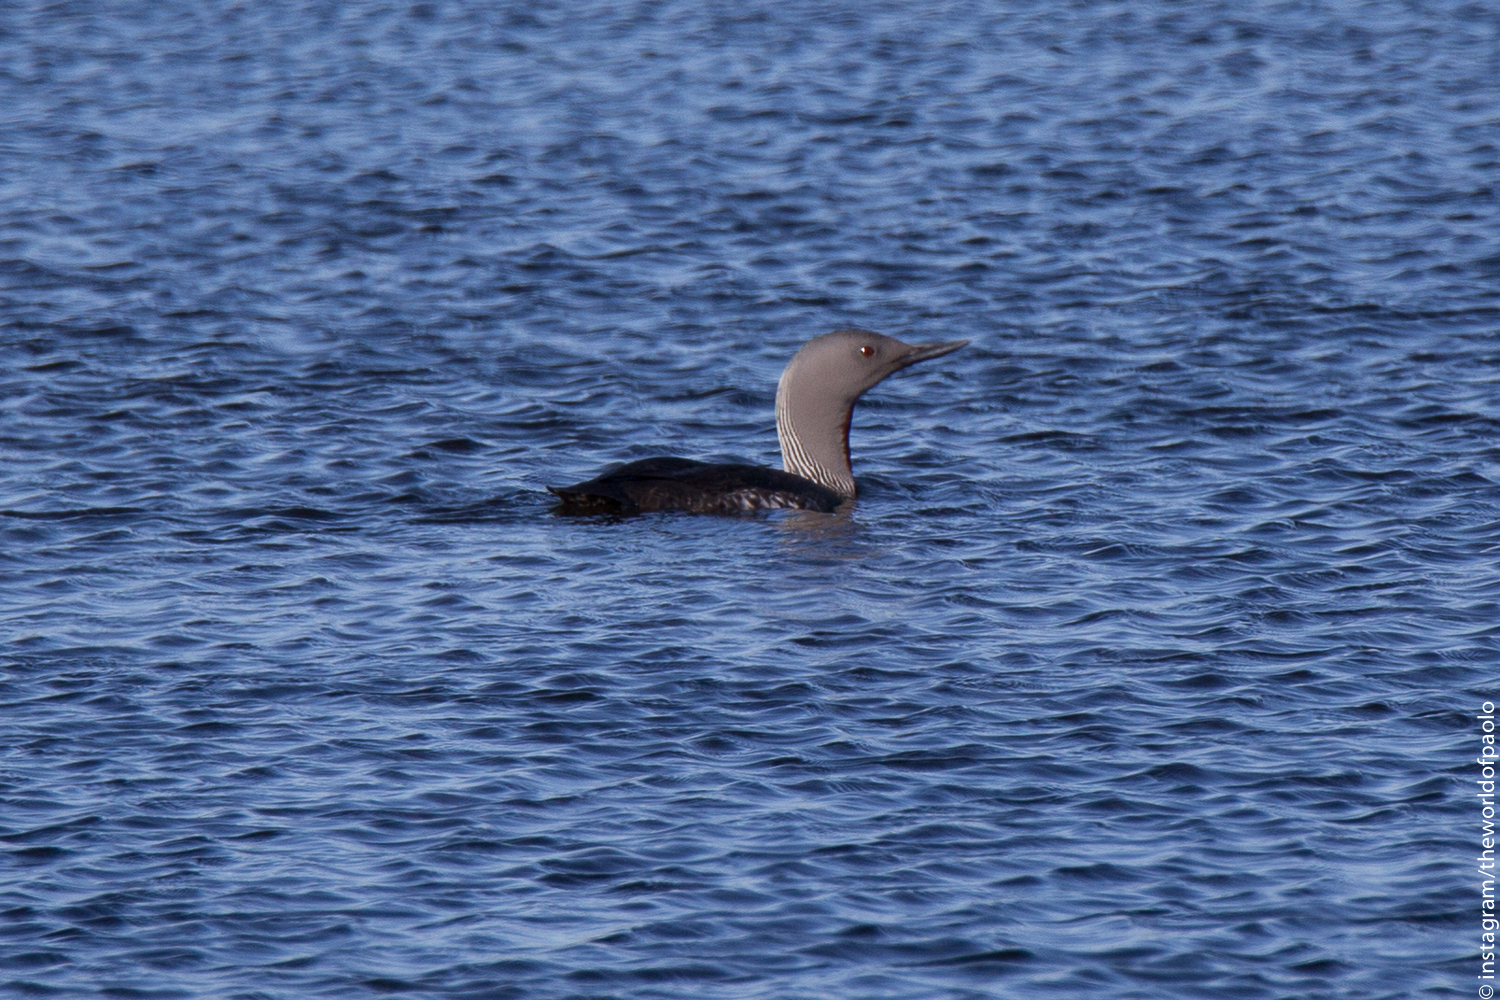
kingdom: Animalia
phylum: Chordata
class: Aves
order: Gaviiformes
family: Gaviidae
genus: Gavia
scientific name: Gavia stellata
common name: Red-throated loon
